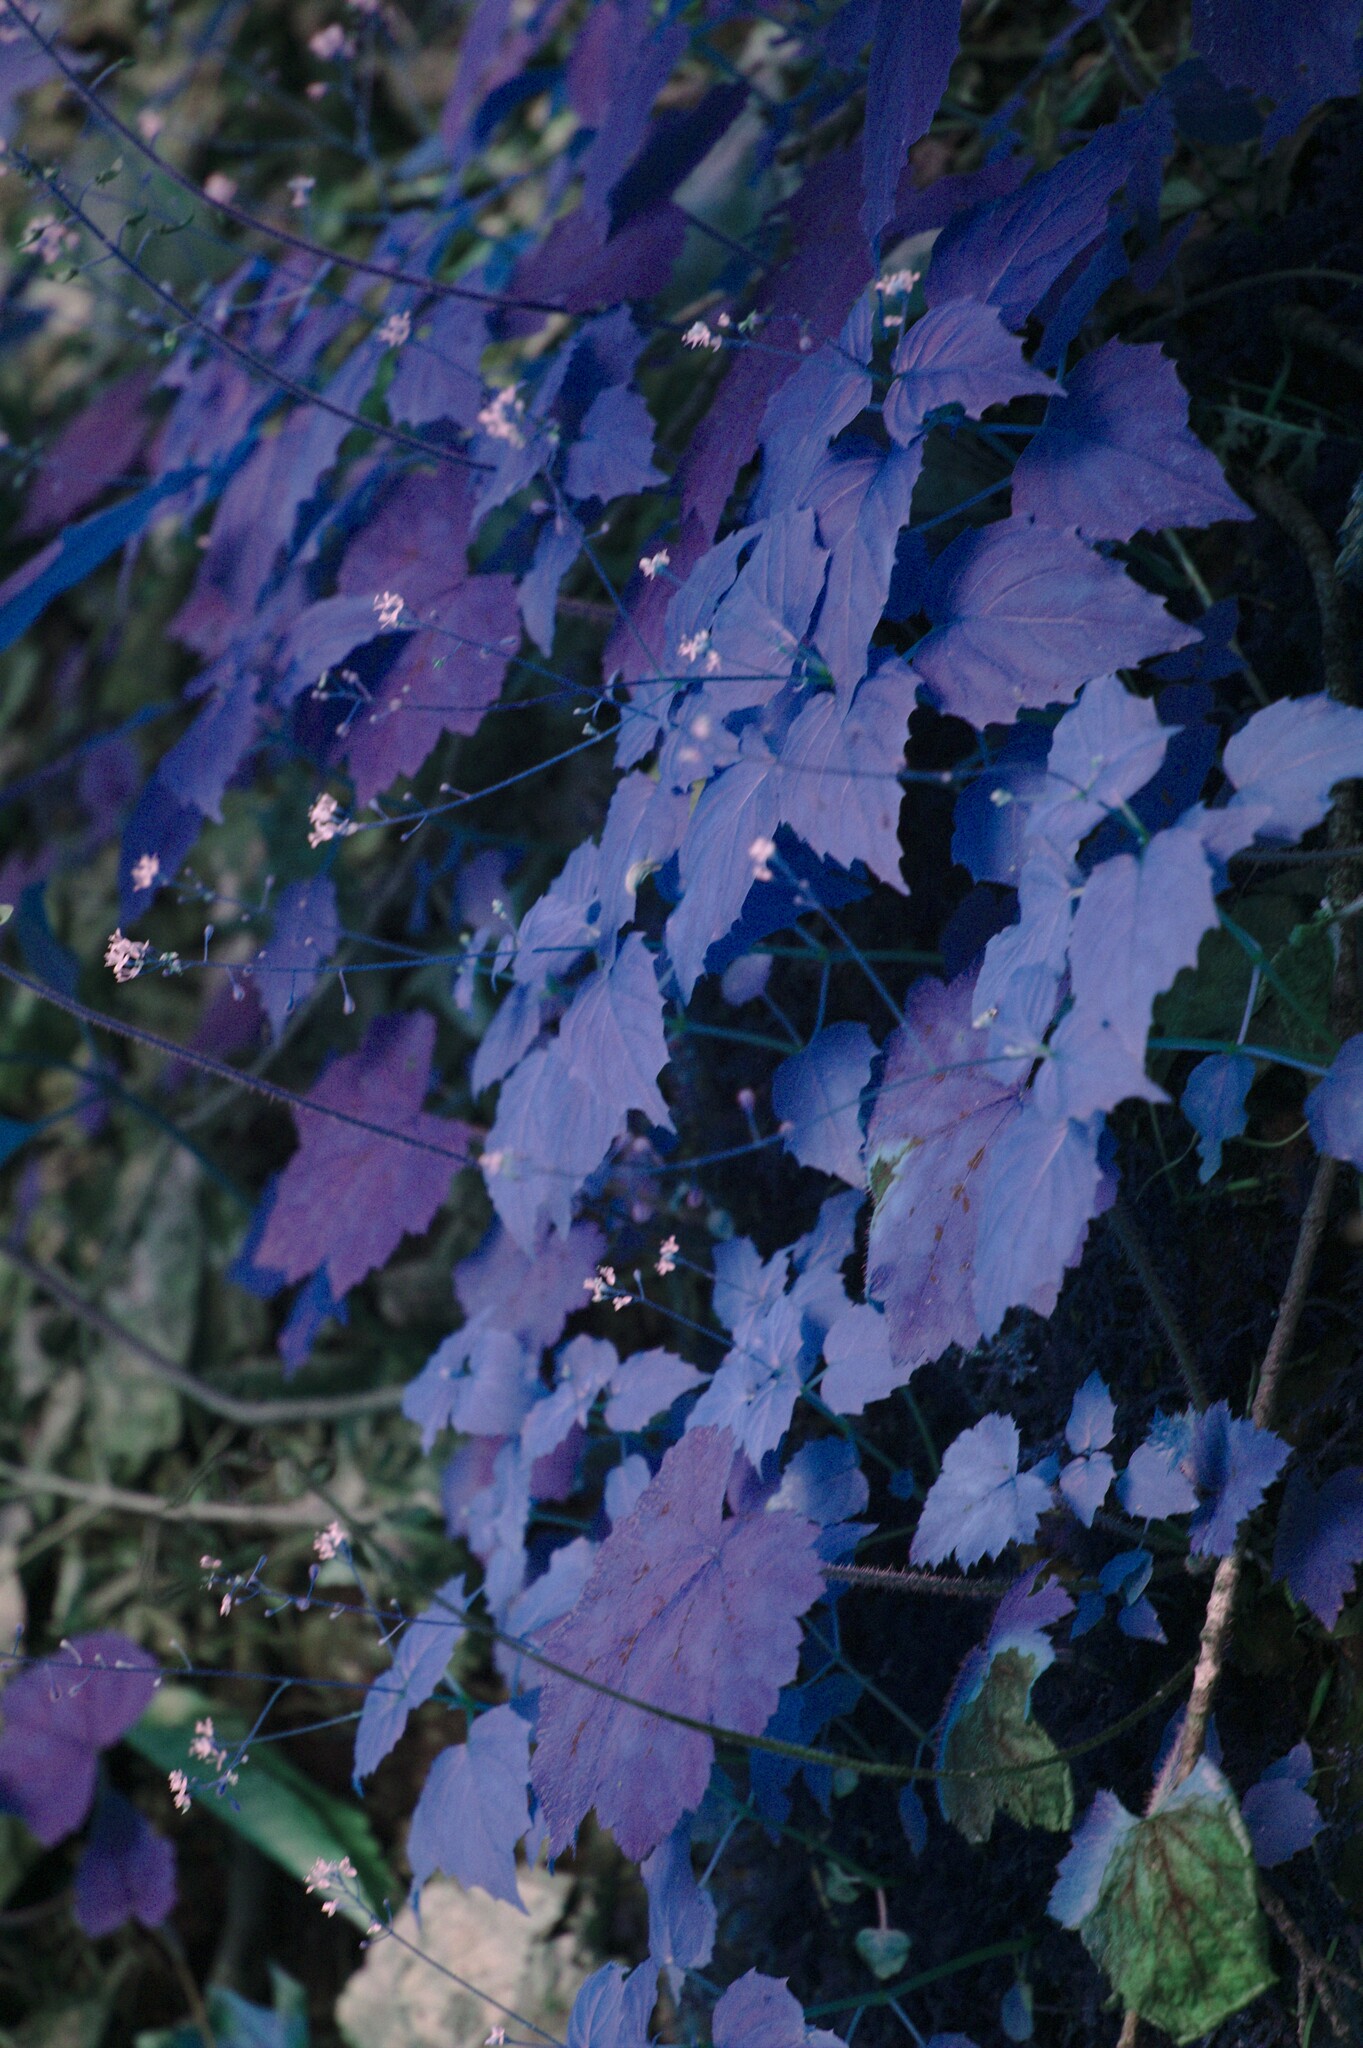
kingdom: Plantae
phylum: Tracheophyta
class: Magnoliopsida
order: Myrtales
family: Onagraceae
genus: Circaea
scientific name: Circaea alpina
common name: Alpine enchanter's-nightshade
